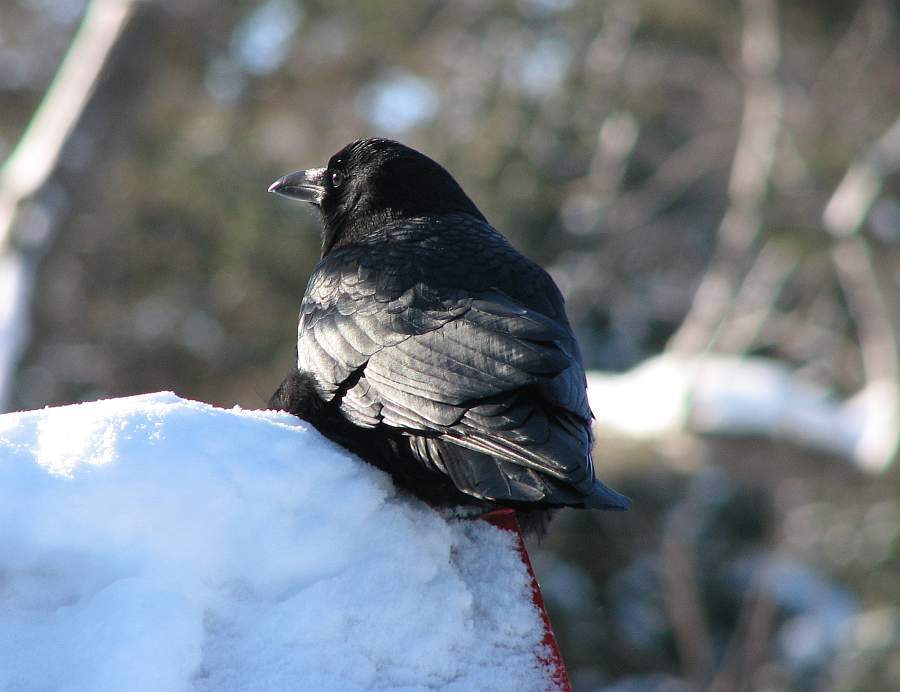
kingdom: Animalia
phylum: Chordata
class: Aves
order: Passeriformes
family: Corvidae
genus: Corvus
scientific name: Corvus brachyrhynchos
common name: American crow
